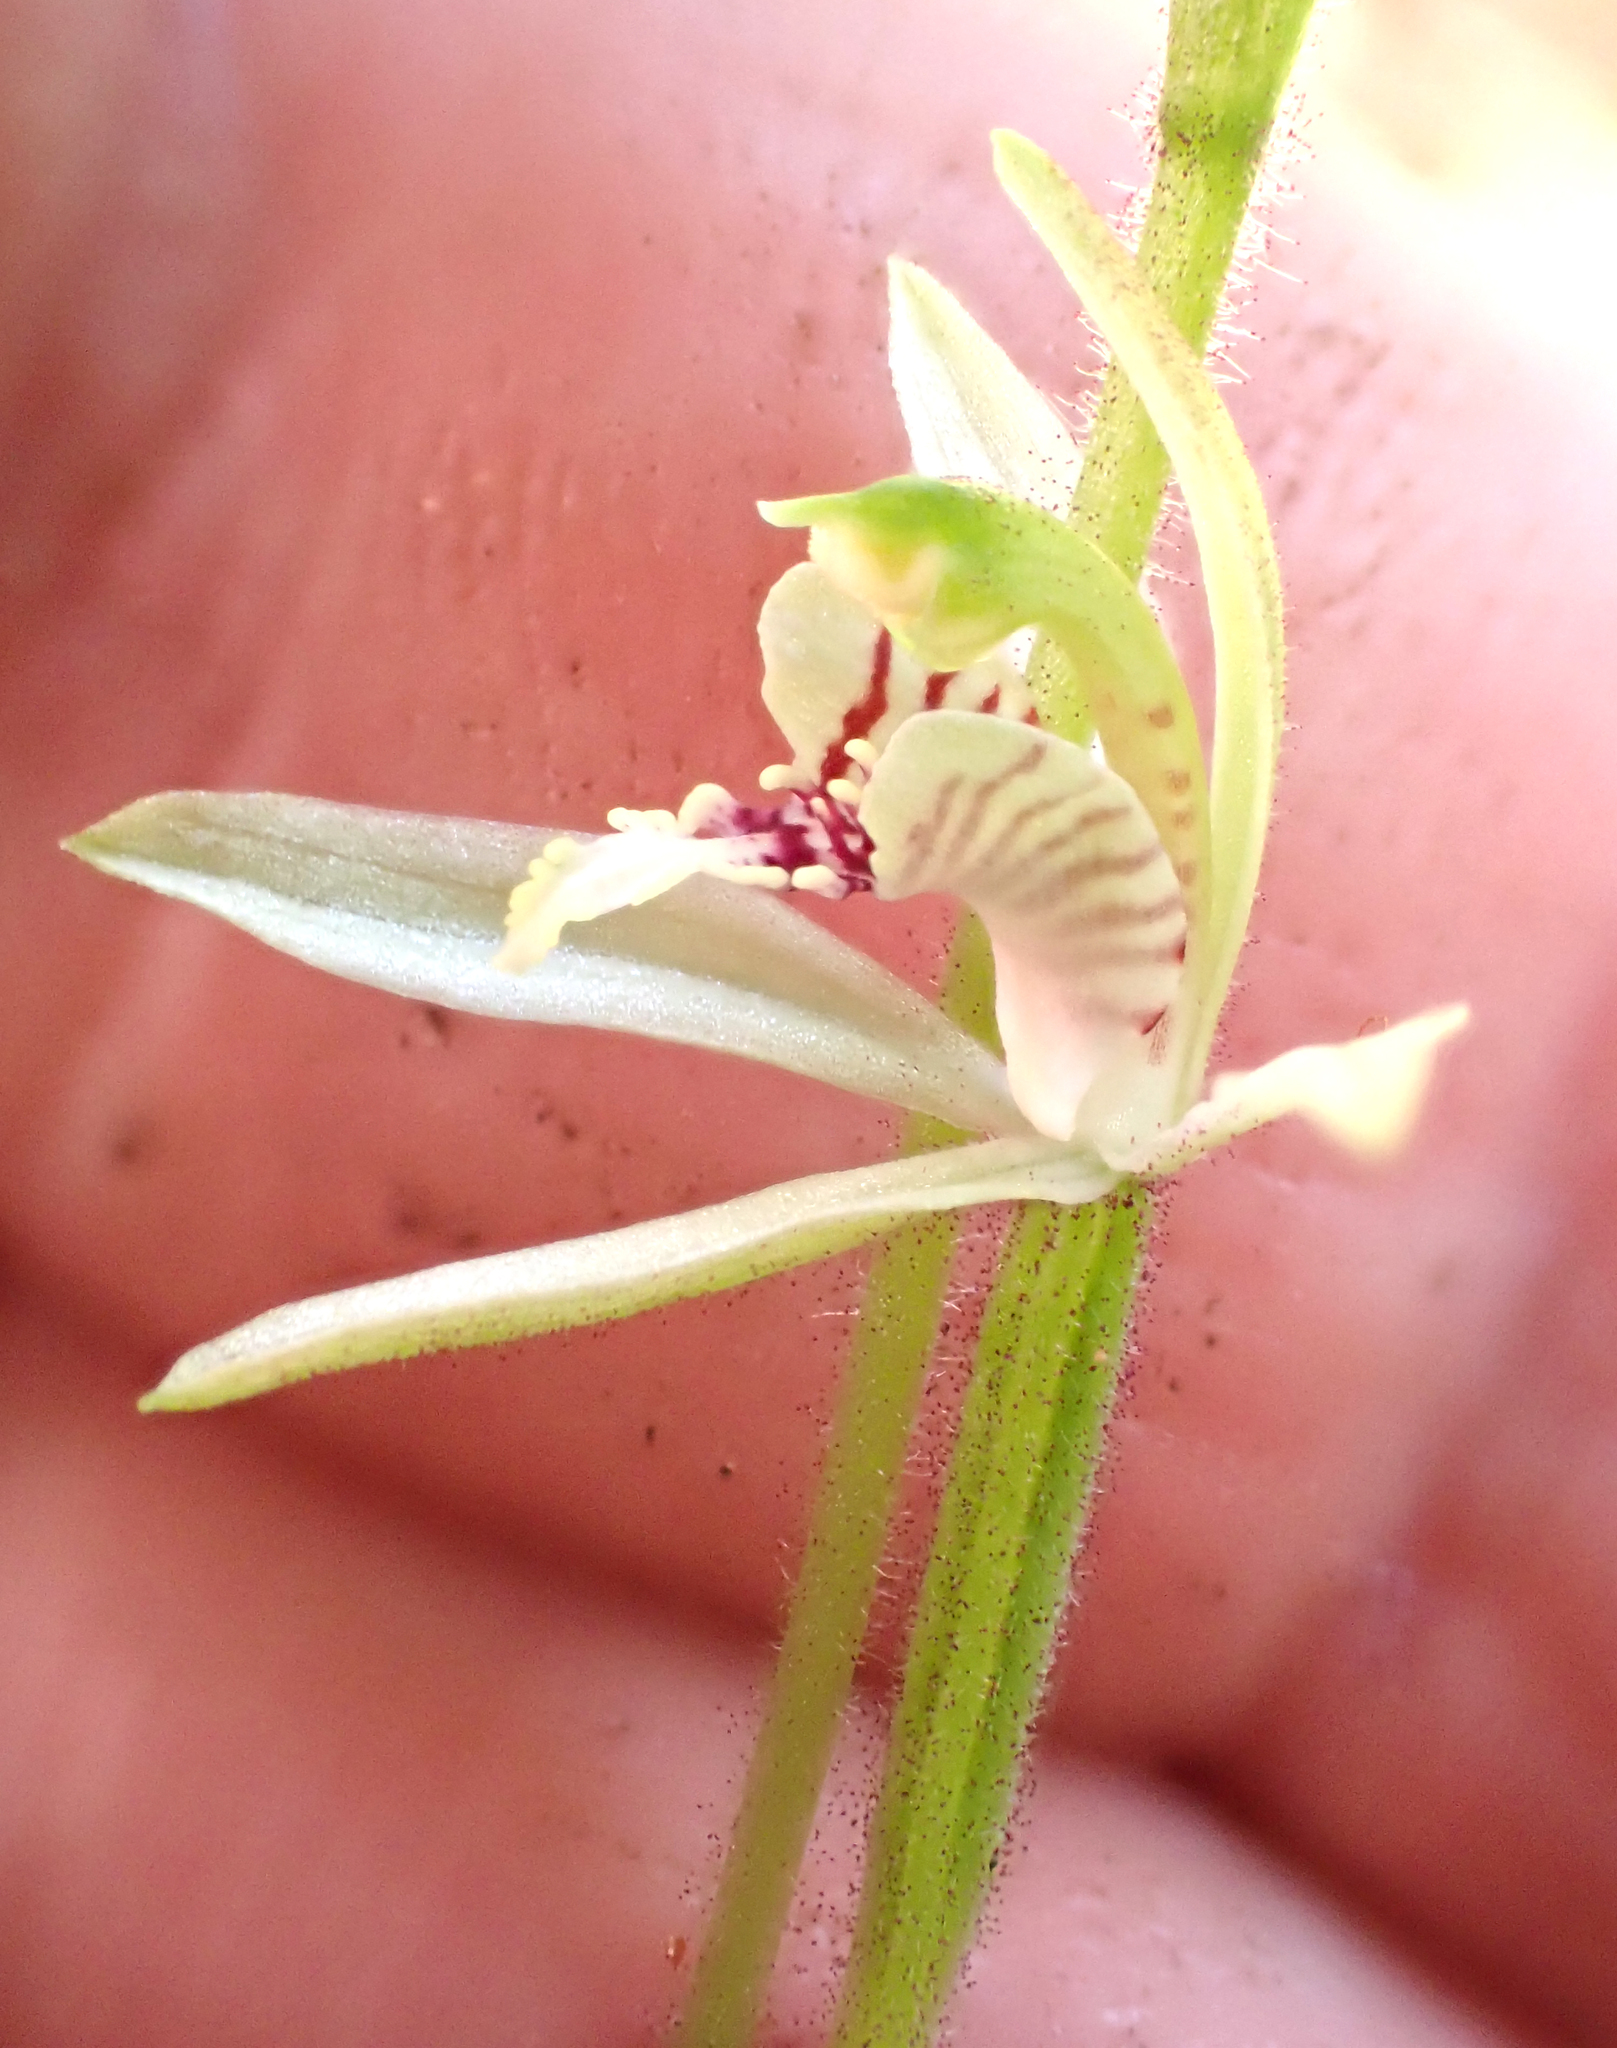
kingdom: Plantae
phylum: Tracheophyta
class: Liliopsida
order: Asparagales
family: Orchidaceae
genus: Caladenia
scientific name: Caladenia chlorostyla
